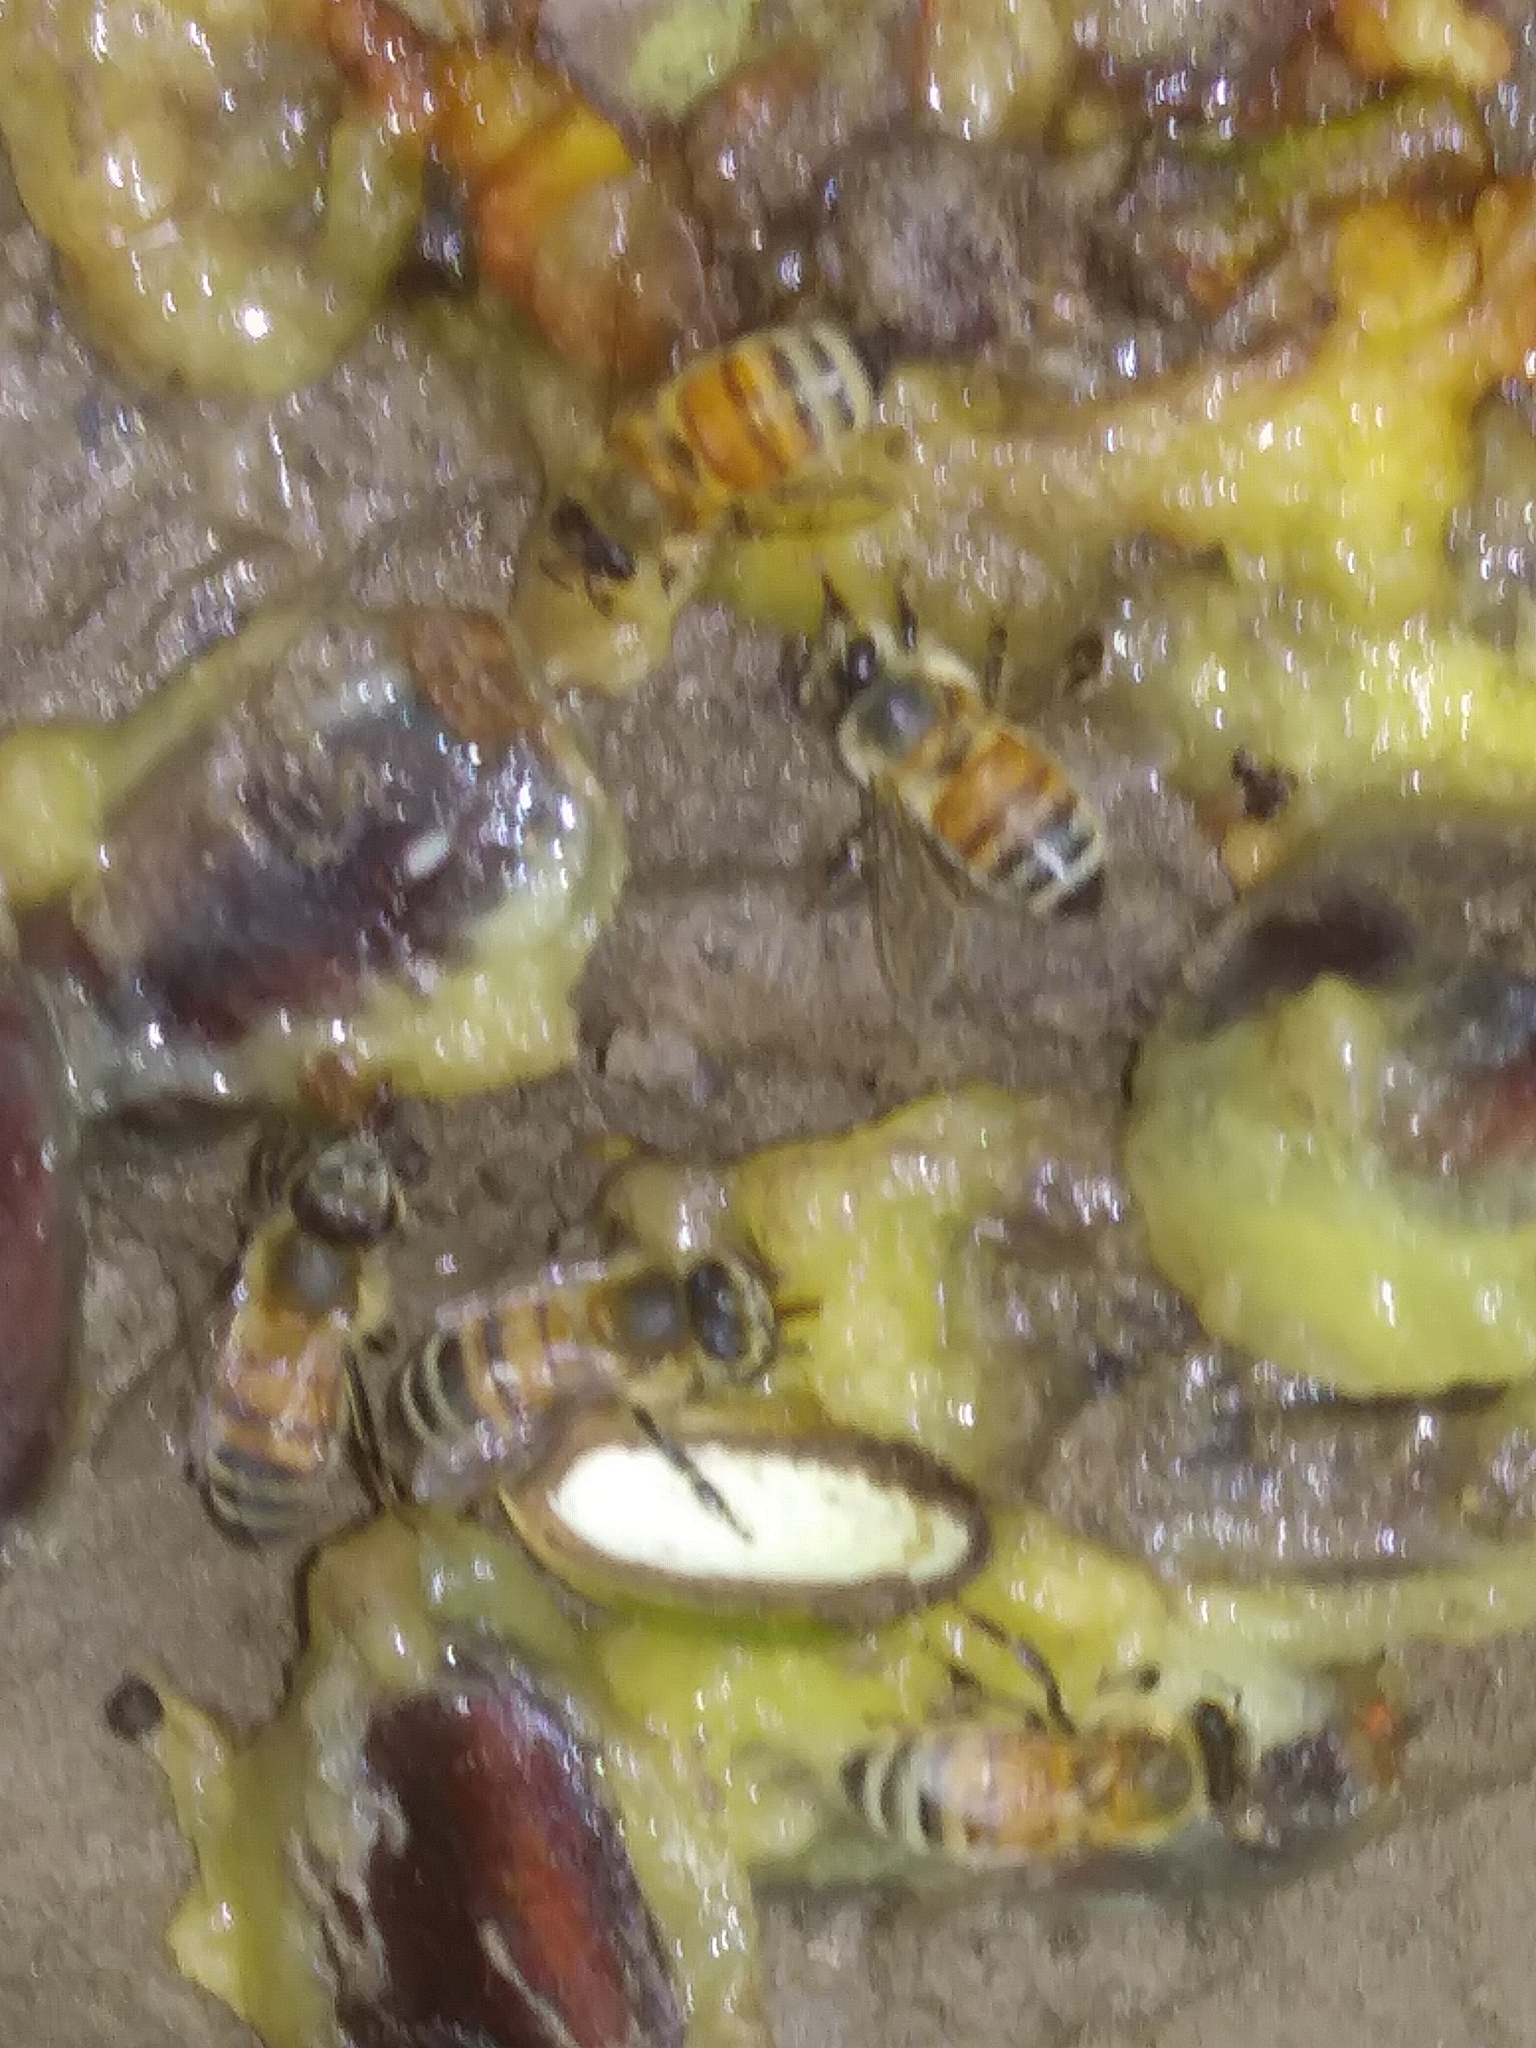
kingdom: Animalia
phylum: Arthropoda
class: Insecta
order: Hymenoptera
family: Apidae
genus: Apis
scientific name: Apis mellifera
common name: Honey bee
